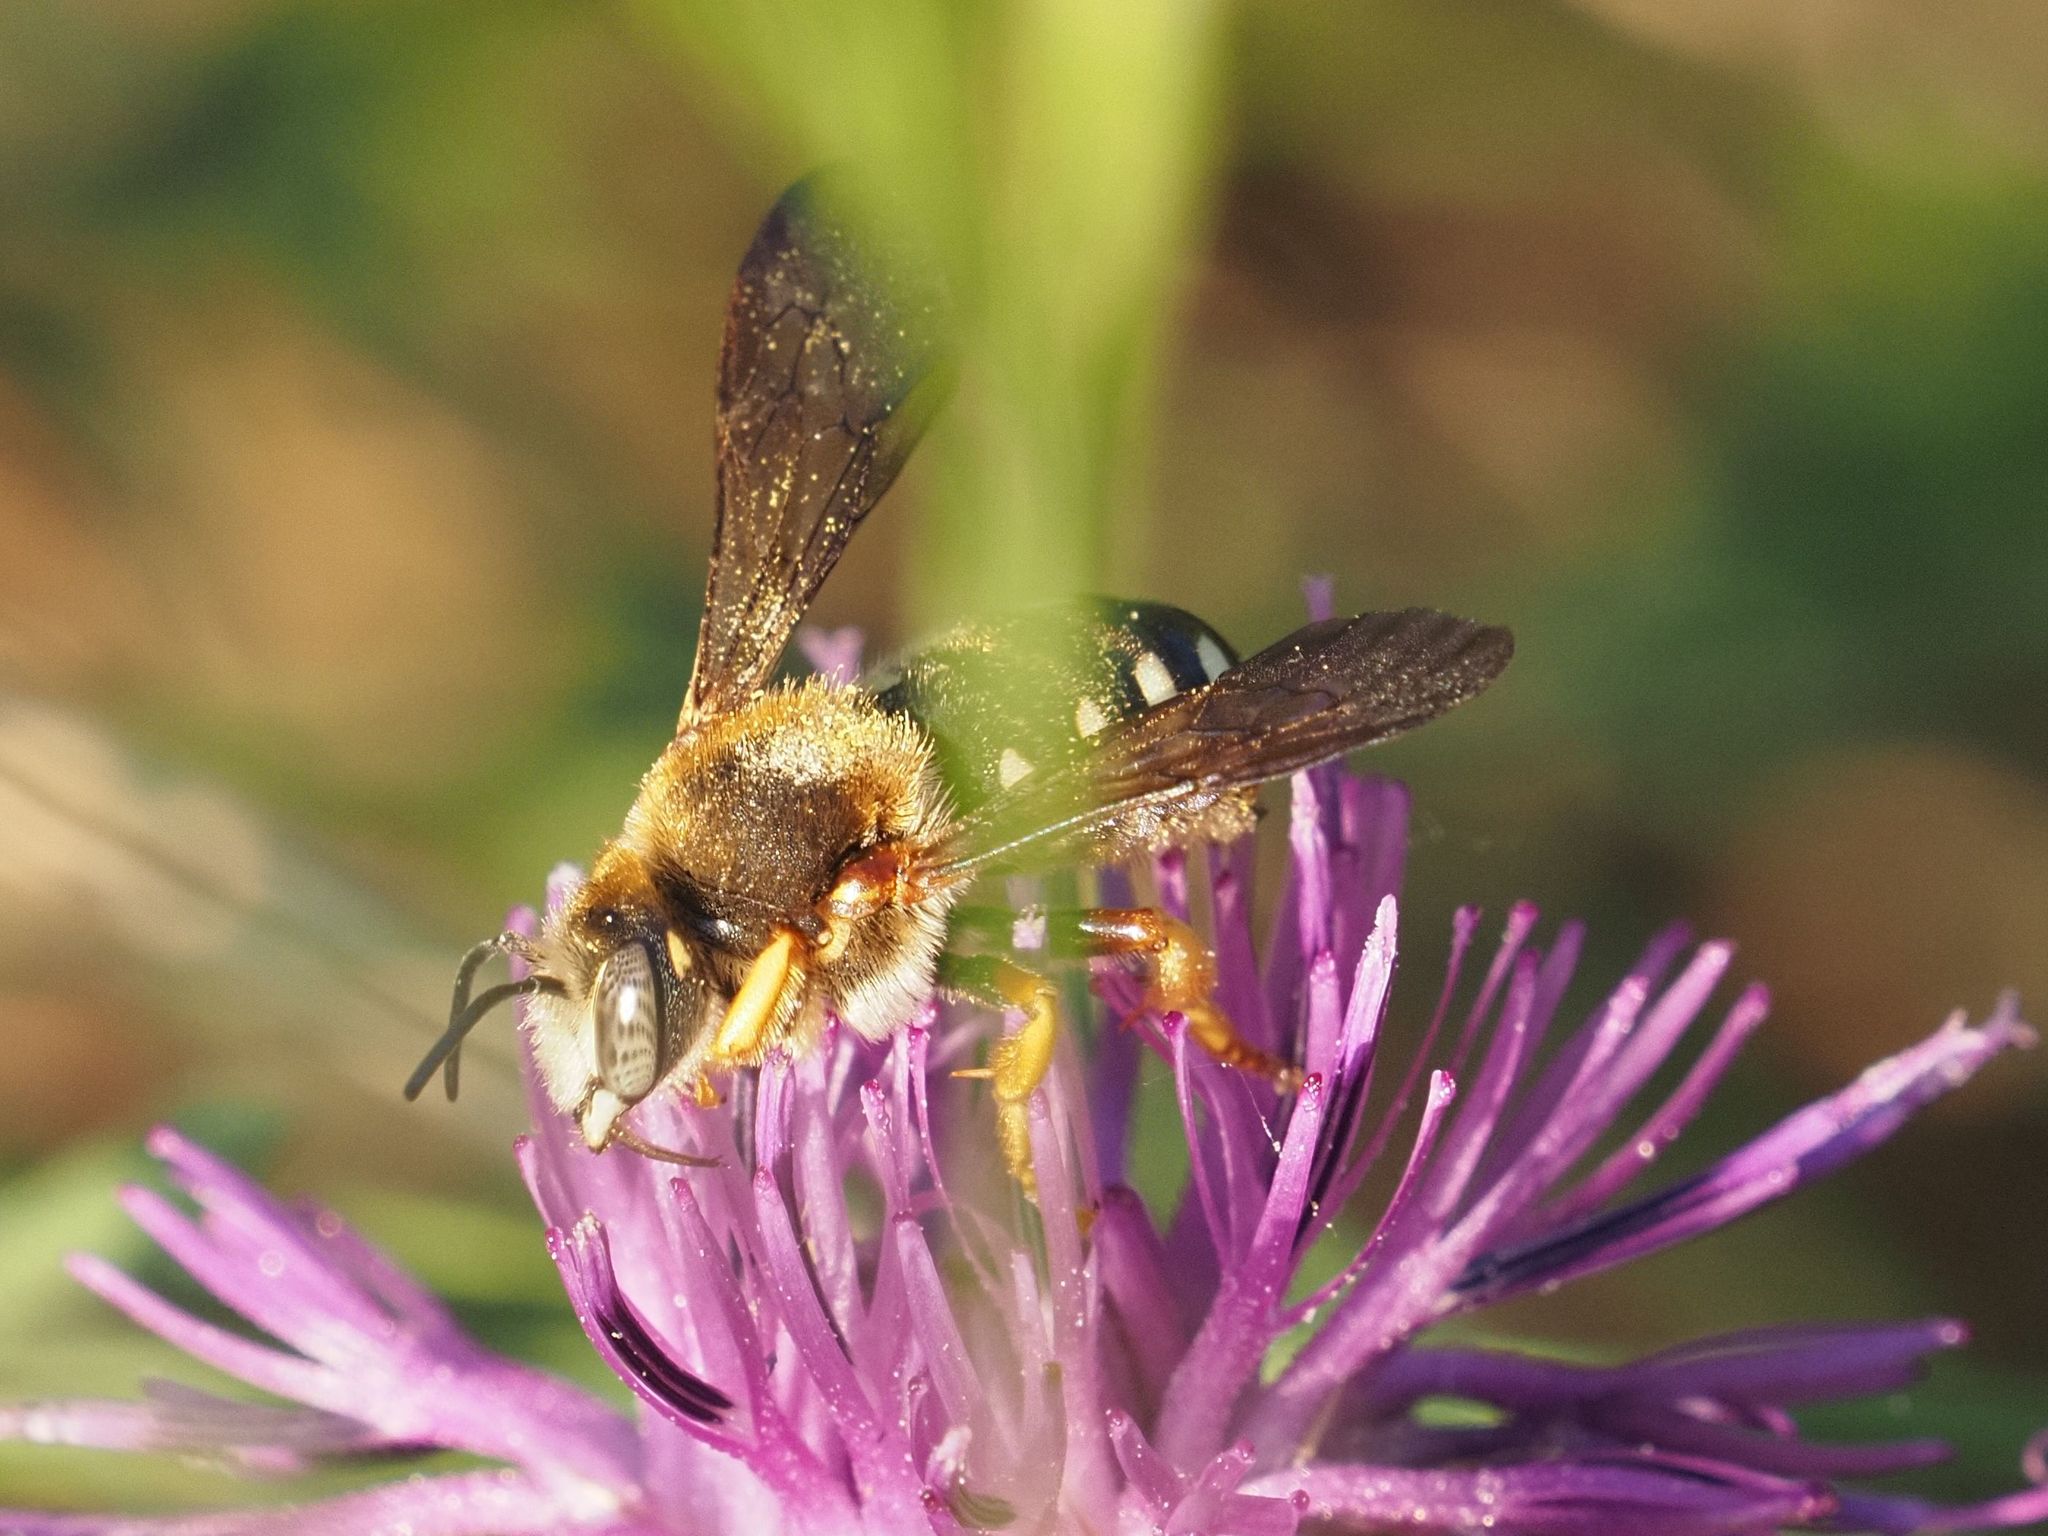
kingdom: Animalia
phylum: Arthropoda
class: Insecta
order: Hymenoptera
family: Megachilidae
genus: Rhodanthidium
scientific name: Rhodanthidium septemdentatum
